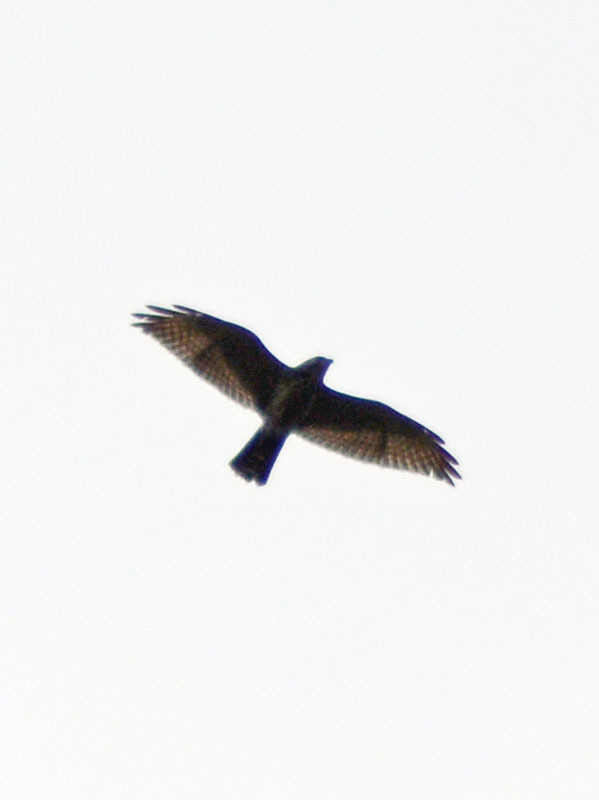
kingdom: Animalia
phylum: Chordata
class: Aves
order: Accipitriformes
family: Accipitridae
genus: Buteo
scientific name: Buteo nitidus
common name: Grey-lined hawk
